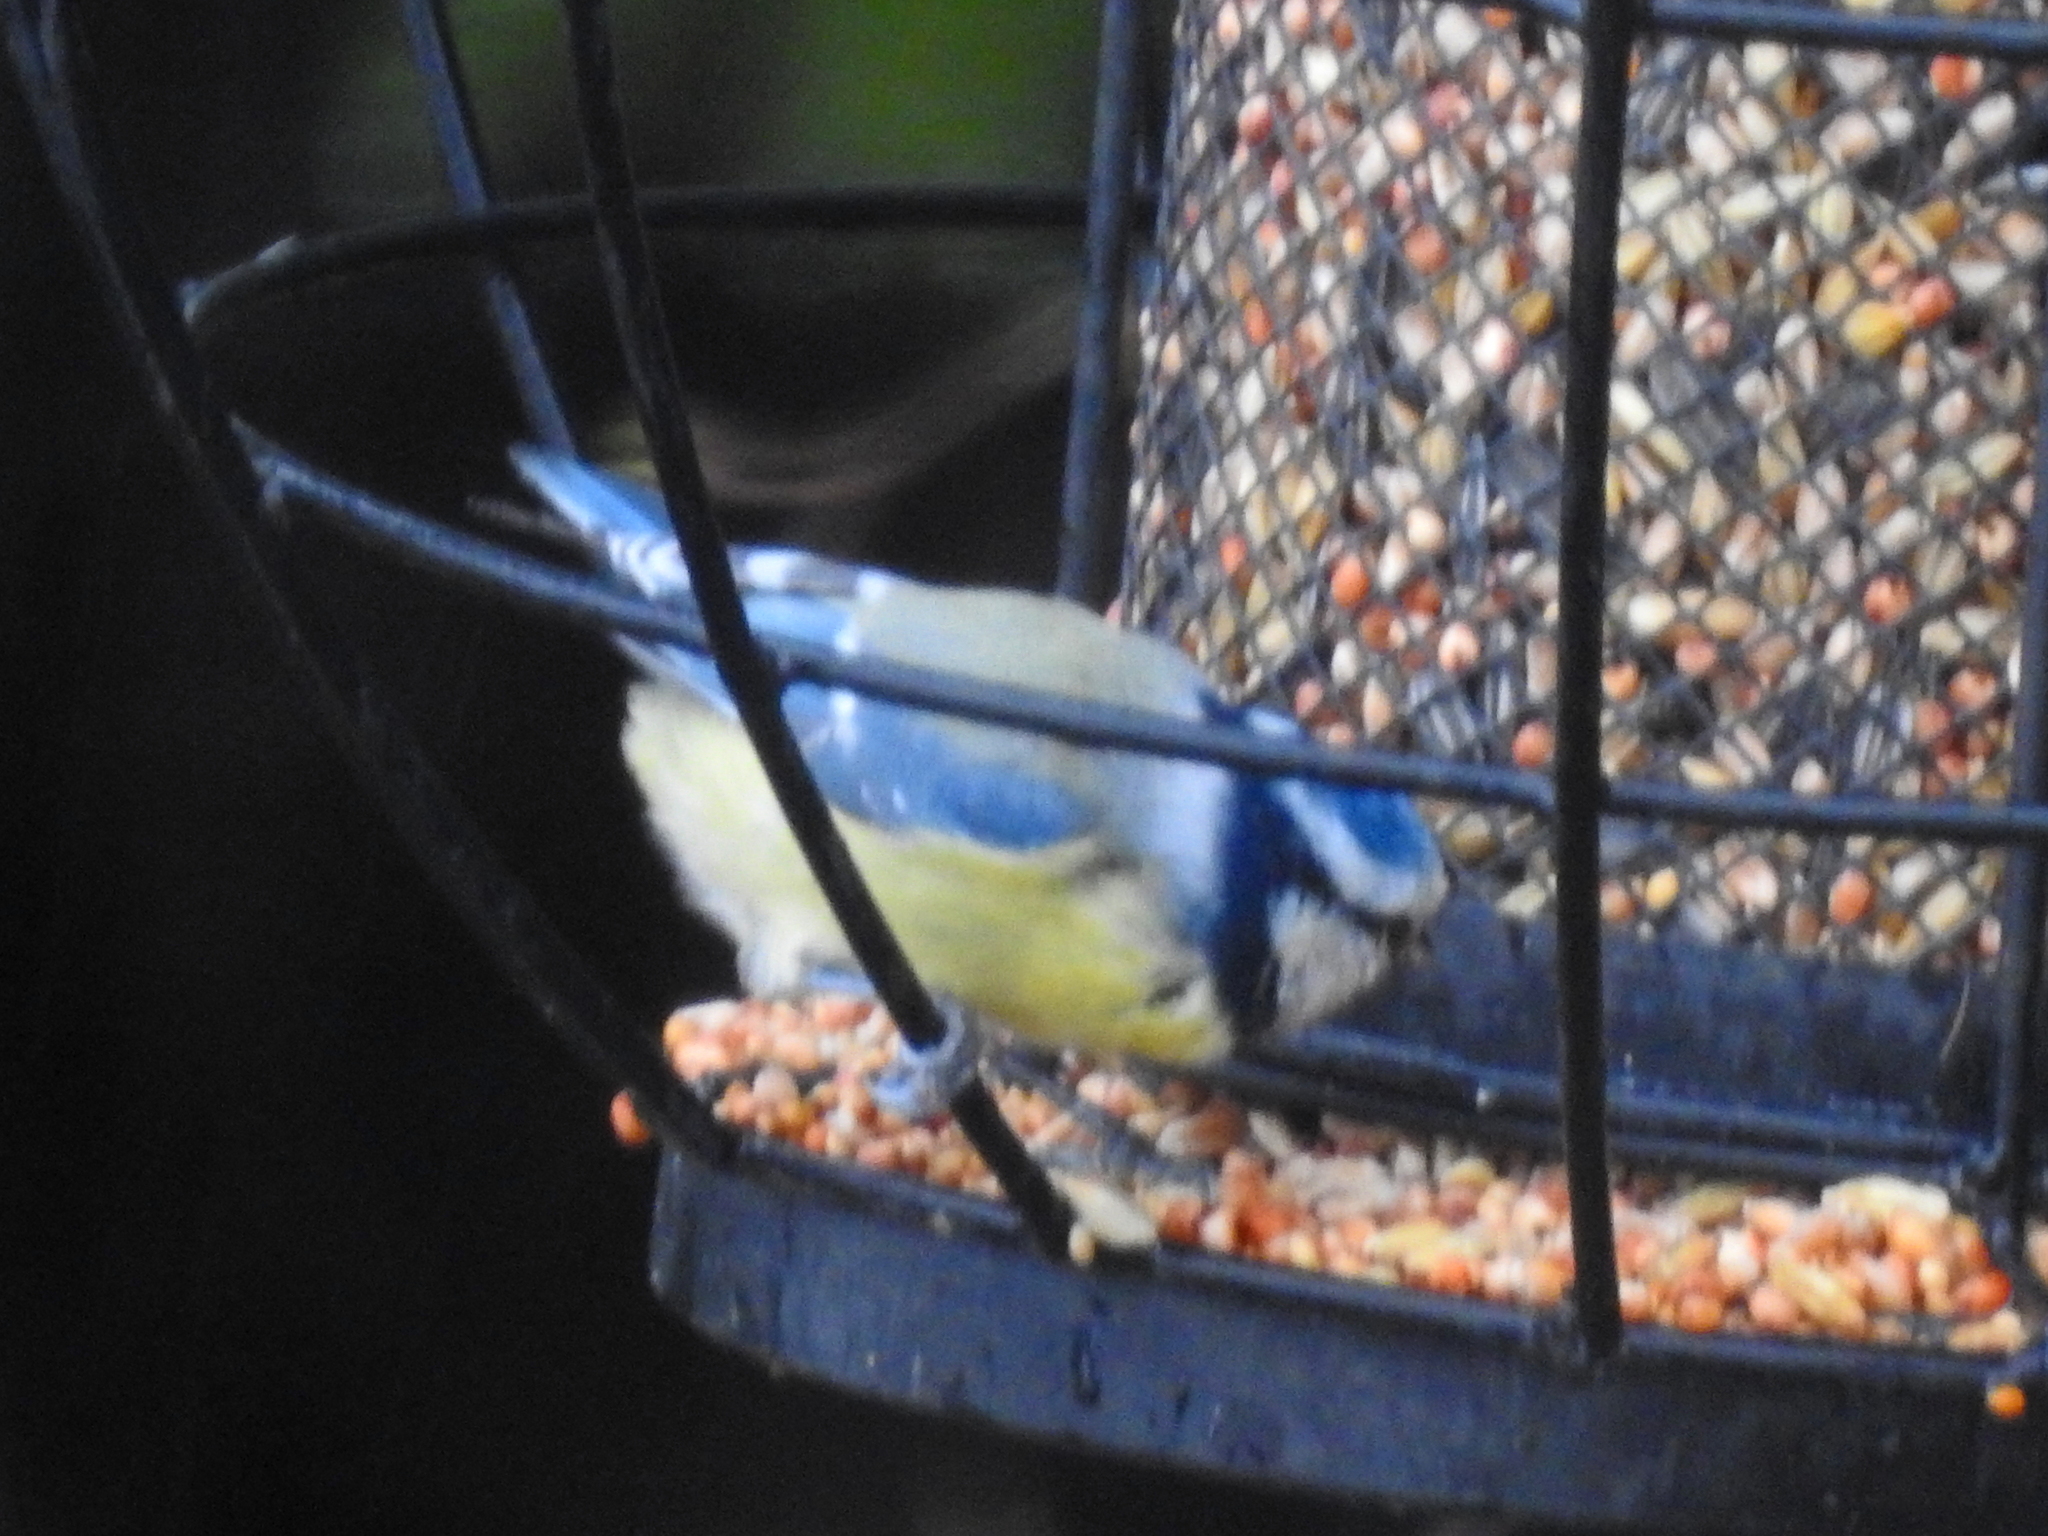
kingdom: Animalia
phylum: Chordata
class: Aves
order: Passeriformes
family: Paridae
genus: Cyanistes
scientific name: Cyanistes caeruleus
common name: Eurasian blue tit
